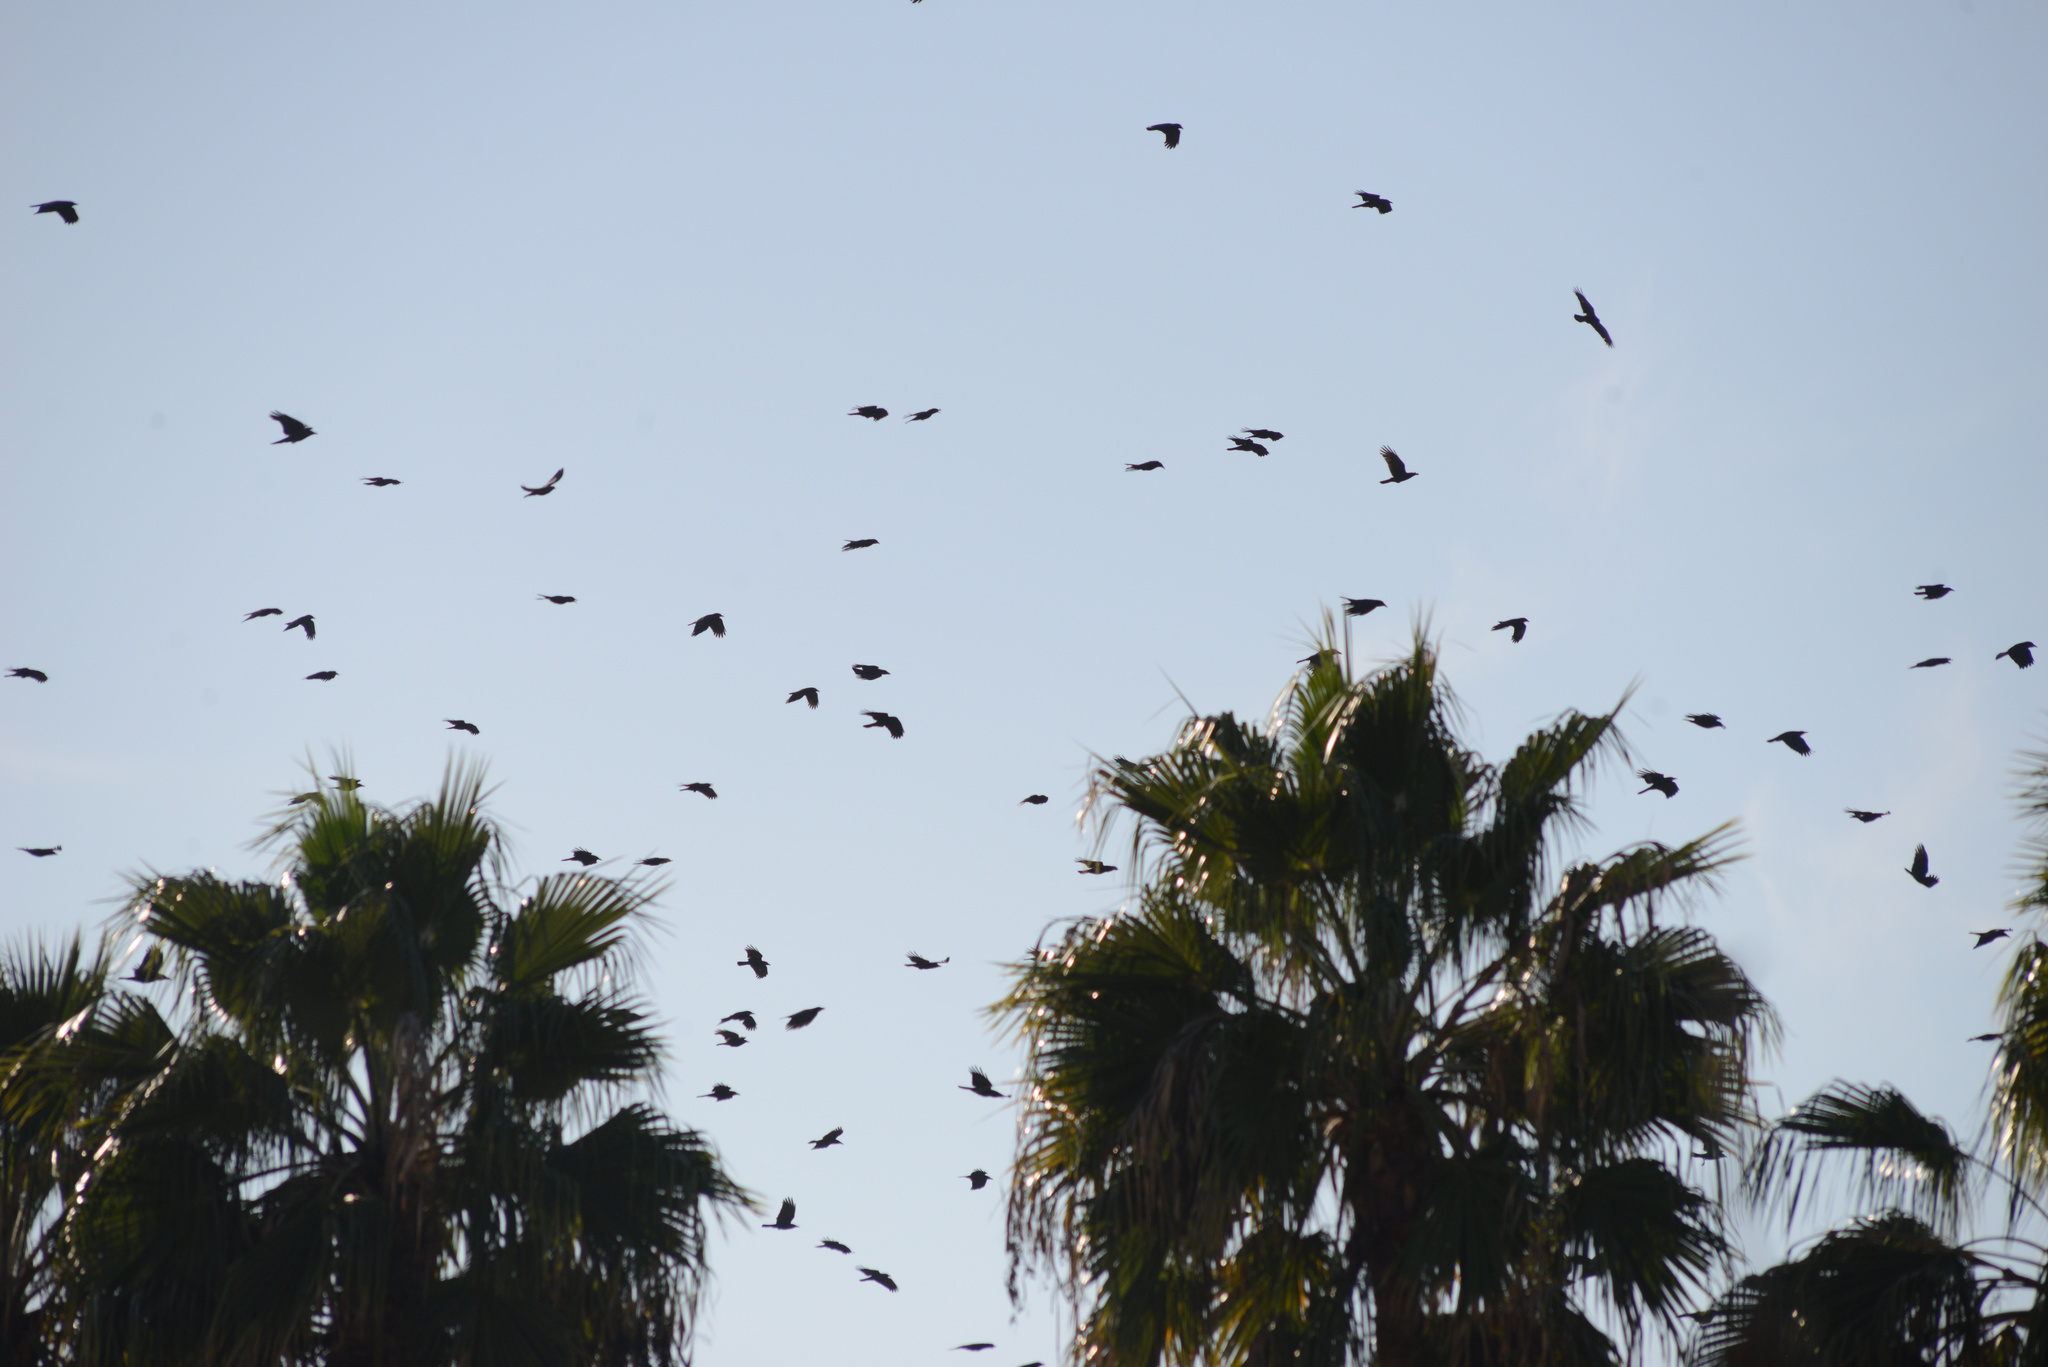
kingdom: Animalia
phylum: Chordata
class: Aves
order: Passeriformes
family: Corvidae
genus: Corvus
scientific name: Corvus brachyrhynchos
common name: American crow
